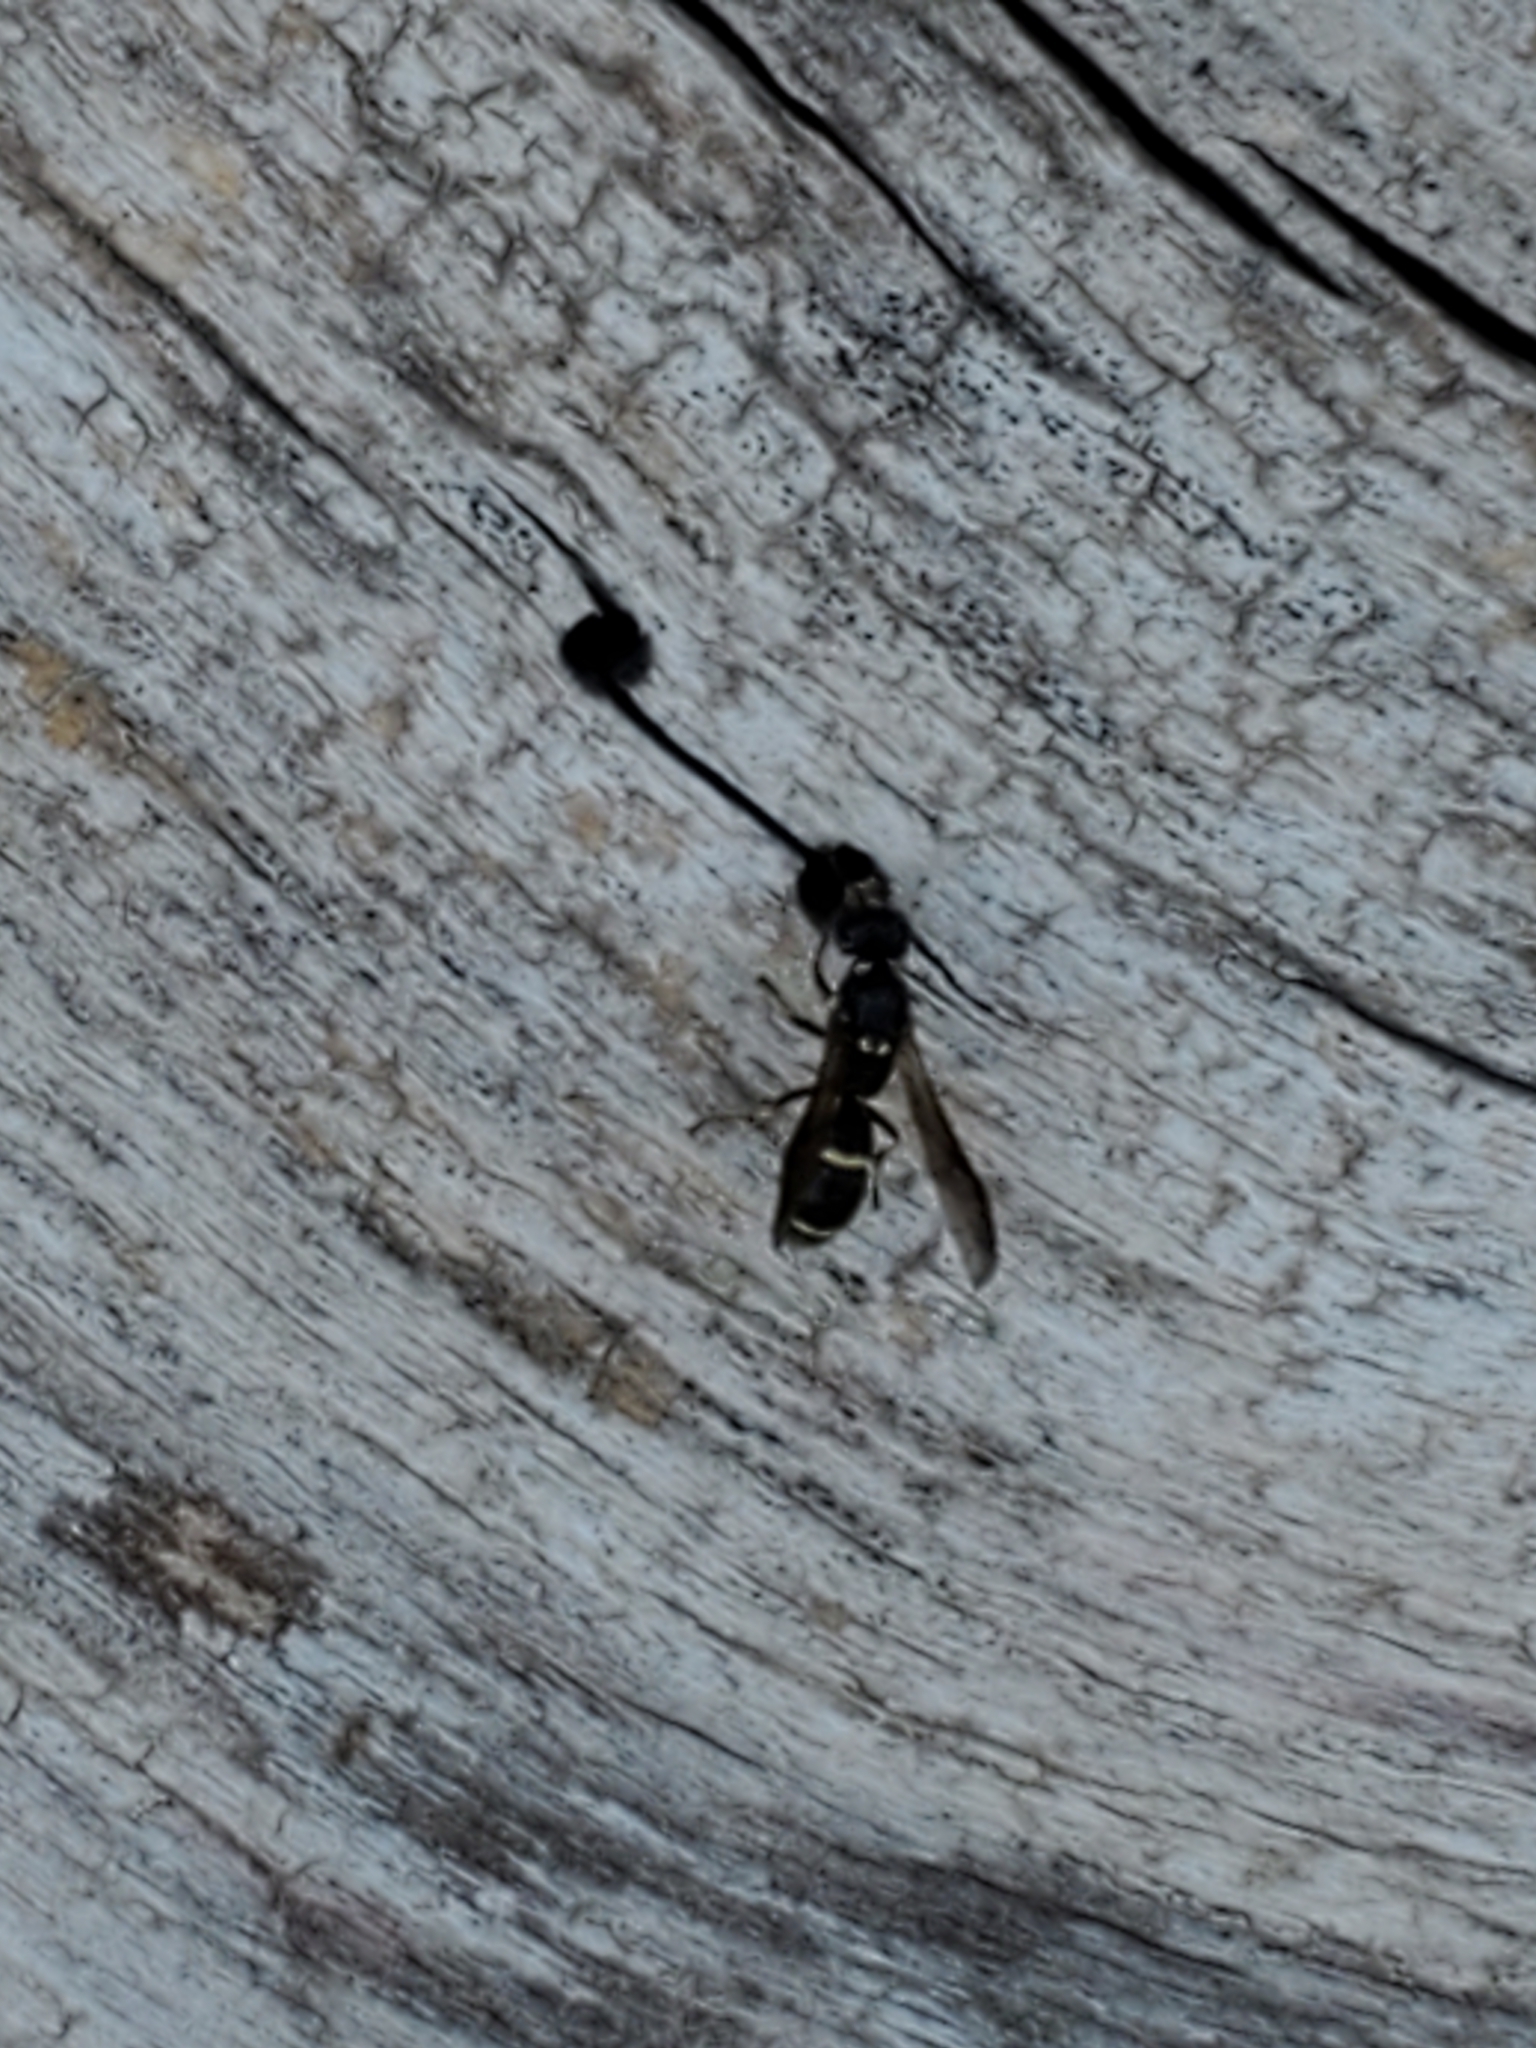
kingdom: Animalia
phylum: Arthropoda
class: Insecta
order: Hymenoptera
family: Eumenidae
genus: Symmorphus
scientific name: Symmorphus
